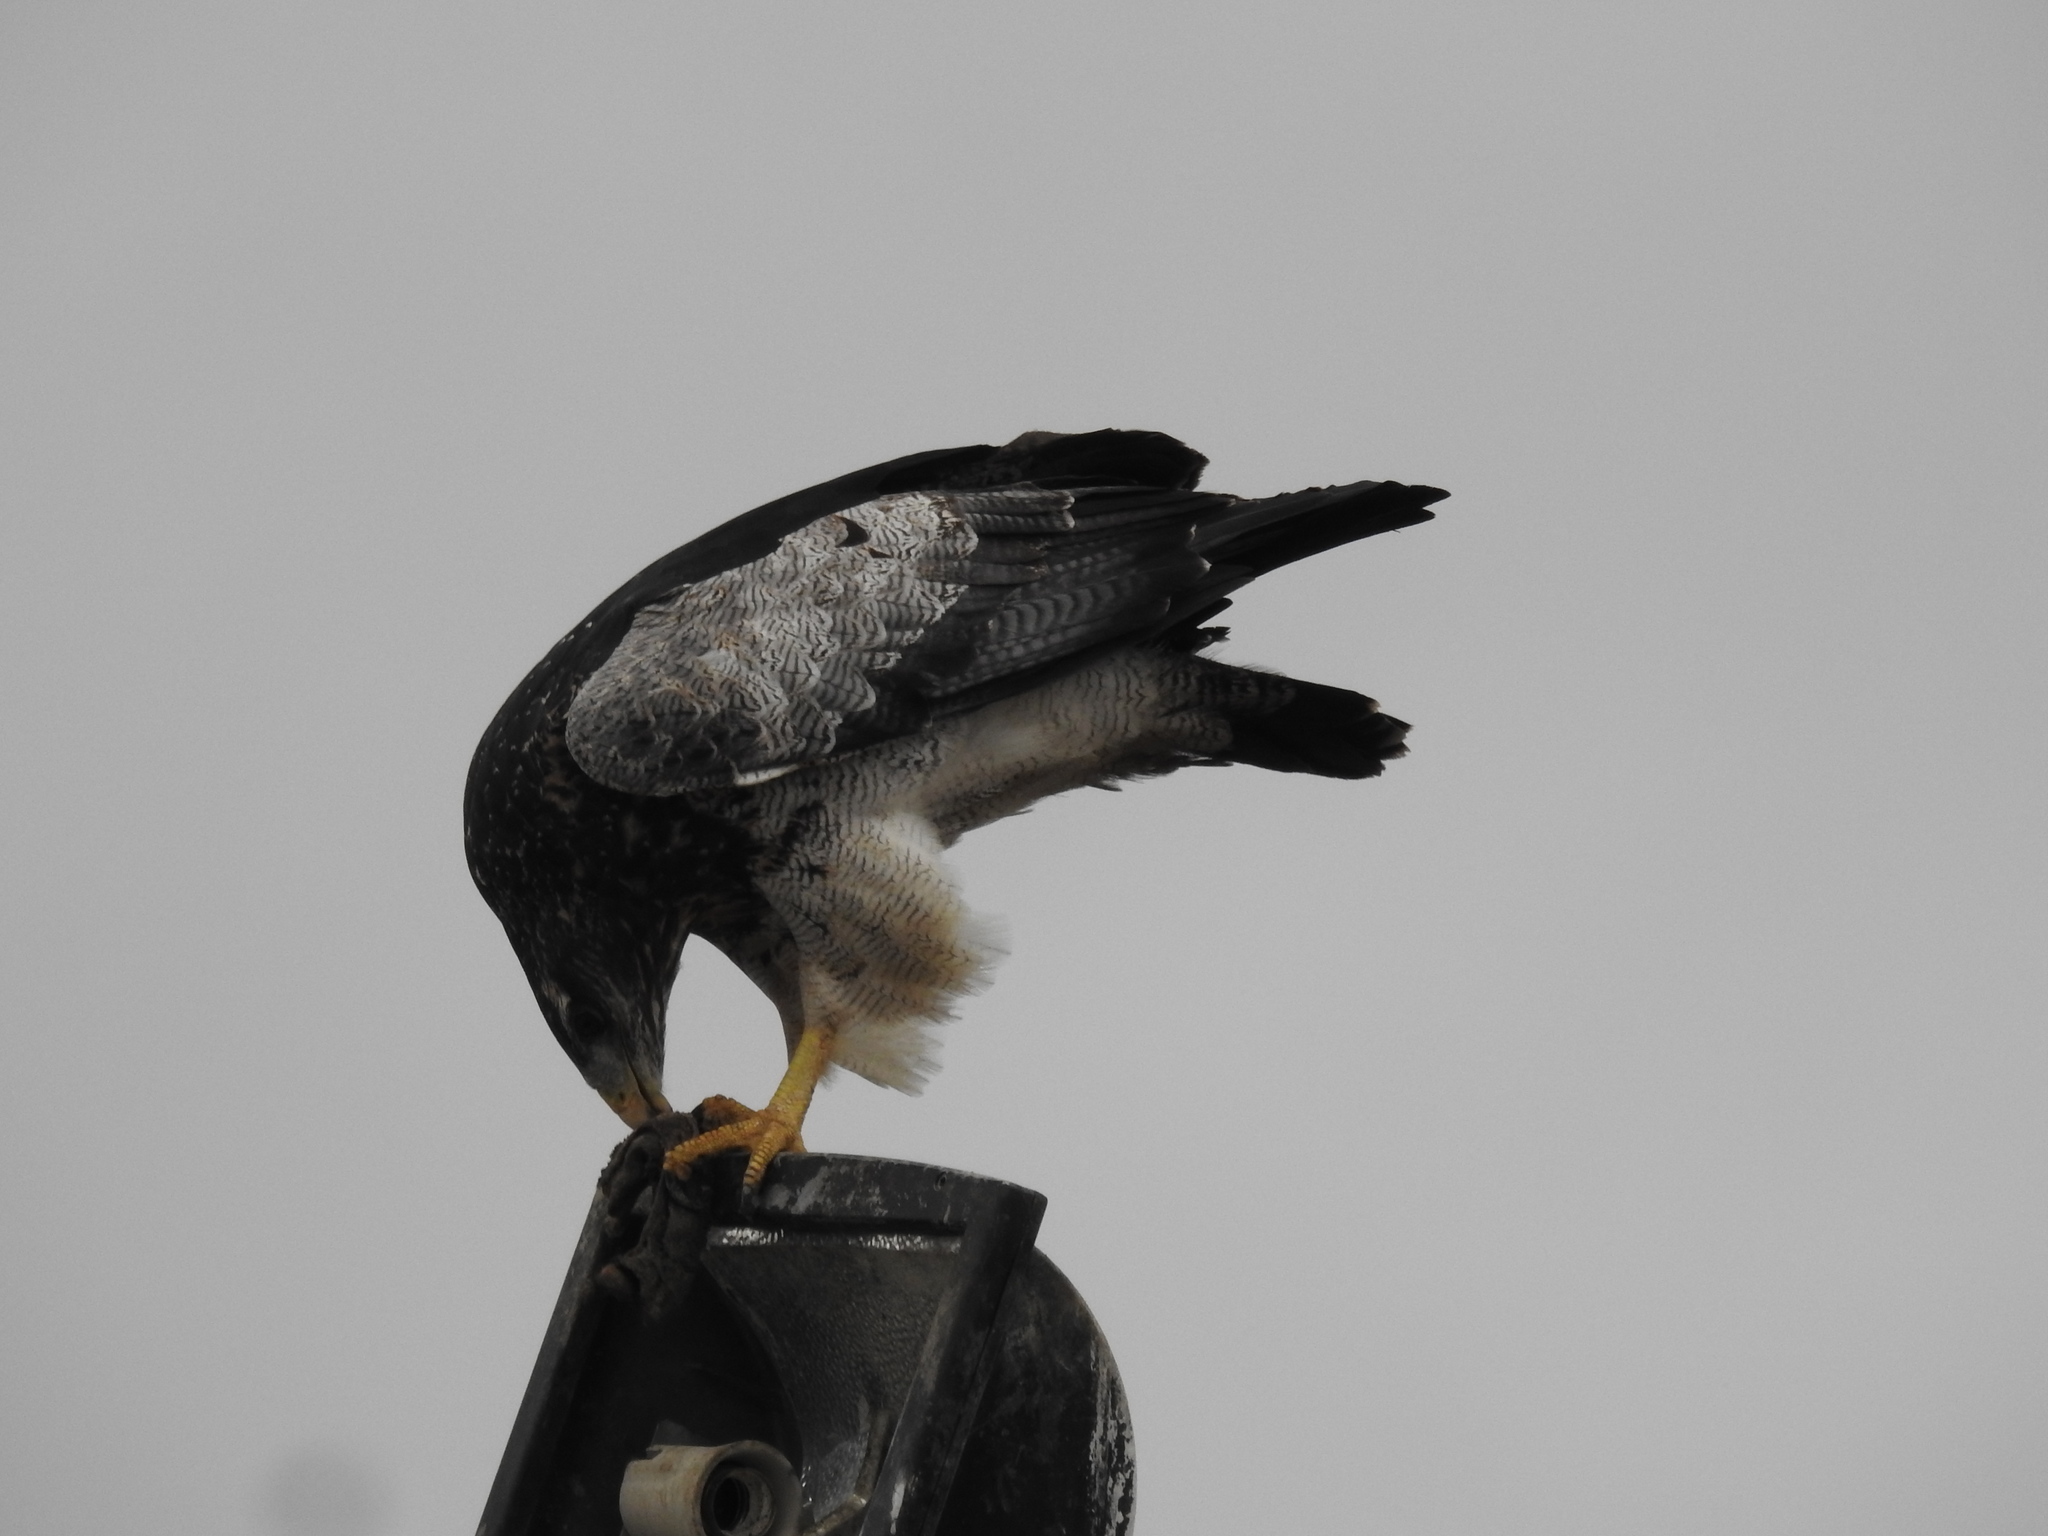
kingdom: Animalia
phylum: Chordata
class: Aves
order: Accipitriformes
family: Accipitridae
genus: Geranoaetus
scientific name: Geranoaetus melanoleucus
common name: Black-chested buzzard-eagle
